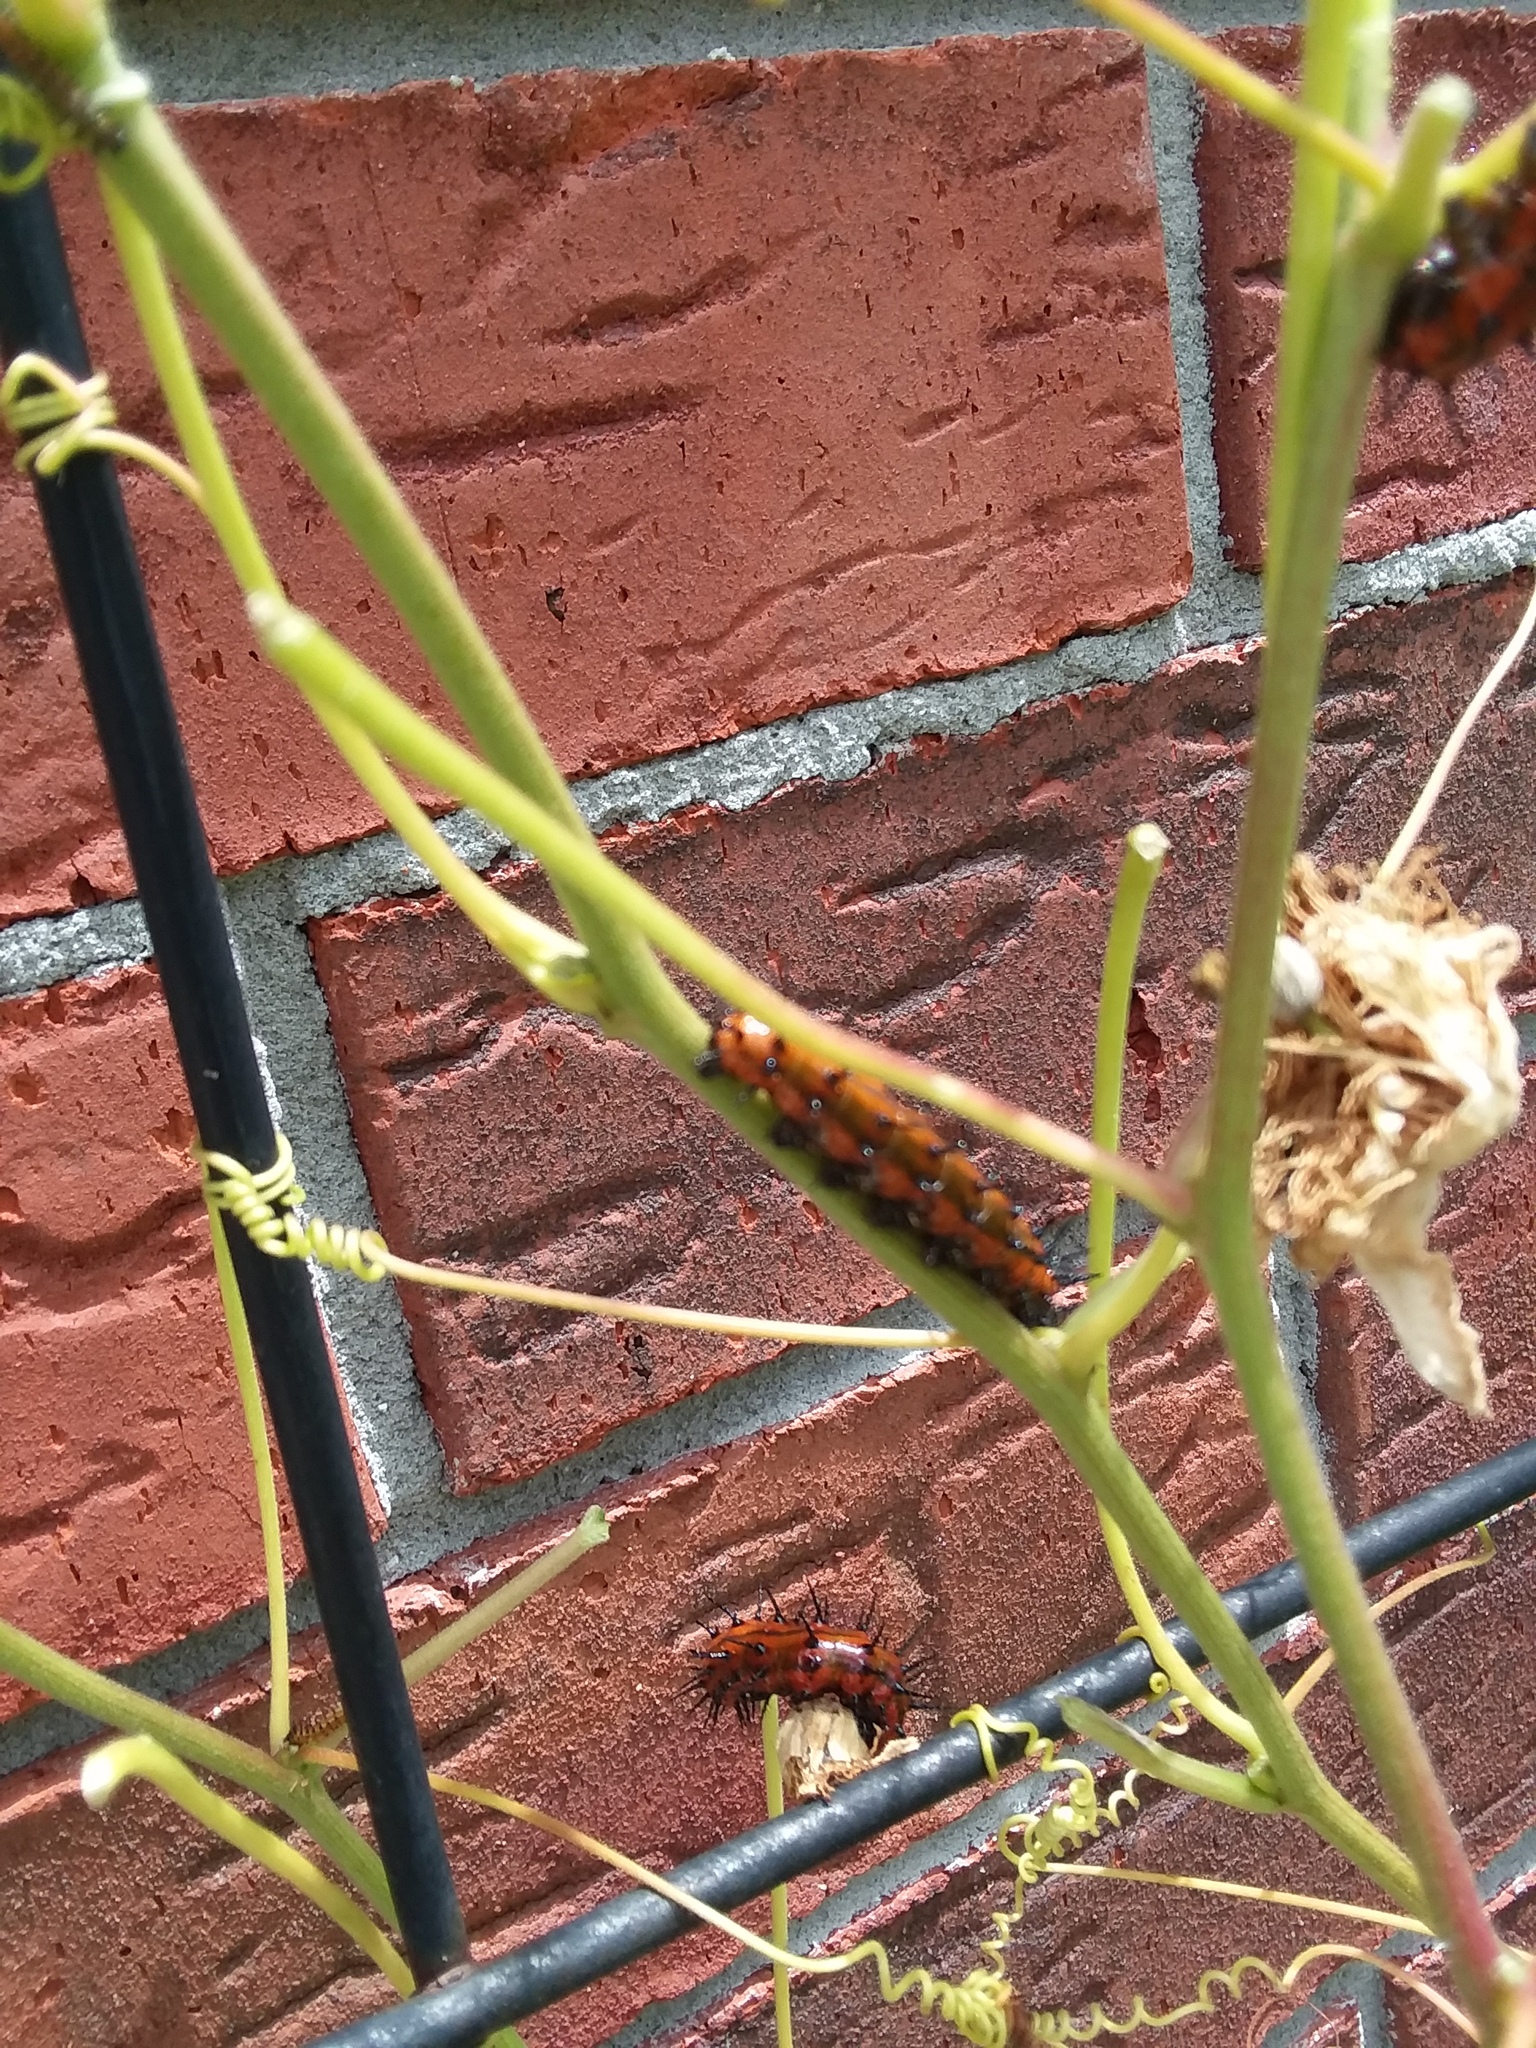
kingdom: Animalia
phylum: Arthropoda
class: Insecta
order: Lepidoptera
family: Nymphalidae
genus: Dione
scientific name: Dione vanillae
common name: Gulf fritillary
